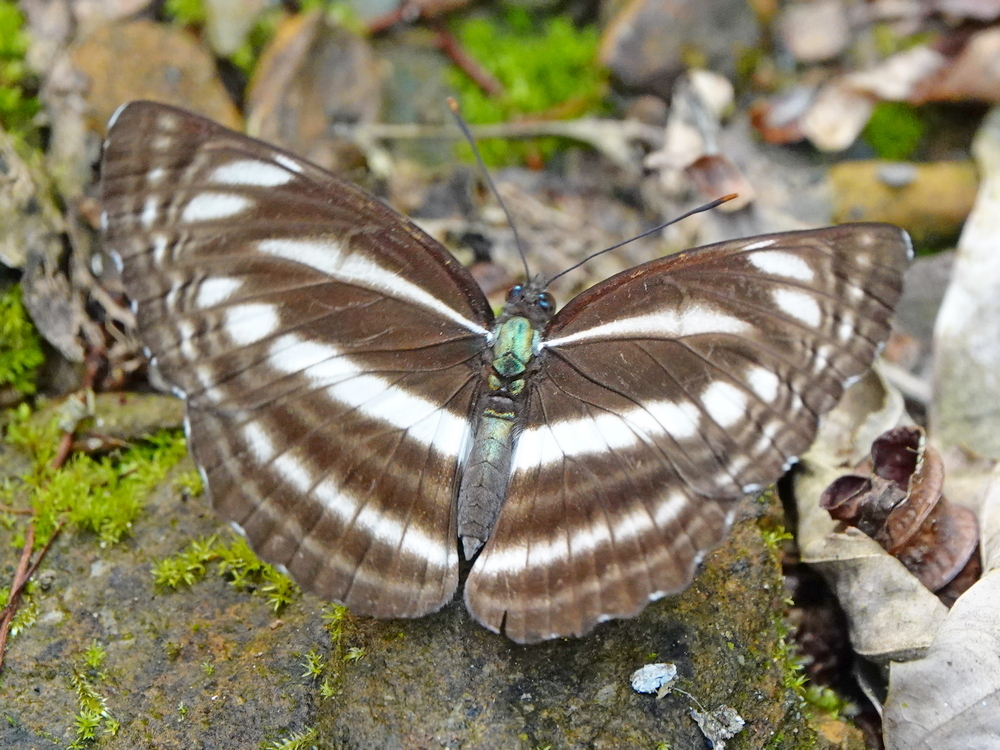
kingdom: Animalia
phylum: Arthropoda
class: Insecta
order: Lepidoptera
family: Nymphalidae
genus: Neptis
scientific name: Neptis clinia
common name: Southern sullied sailer
